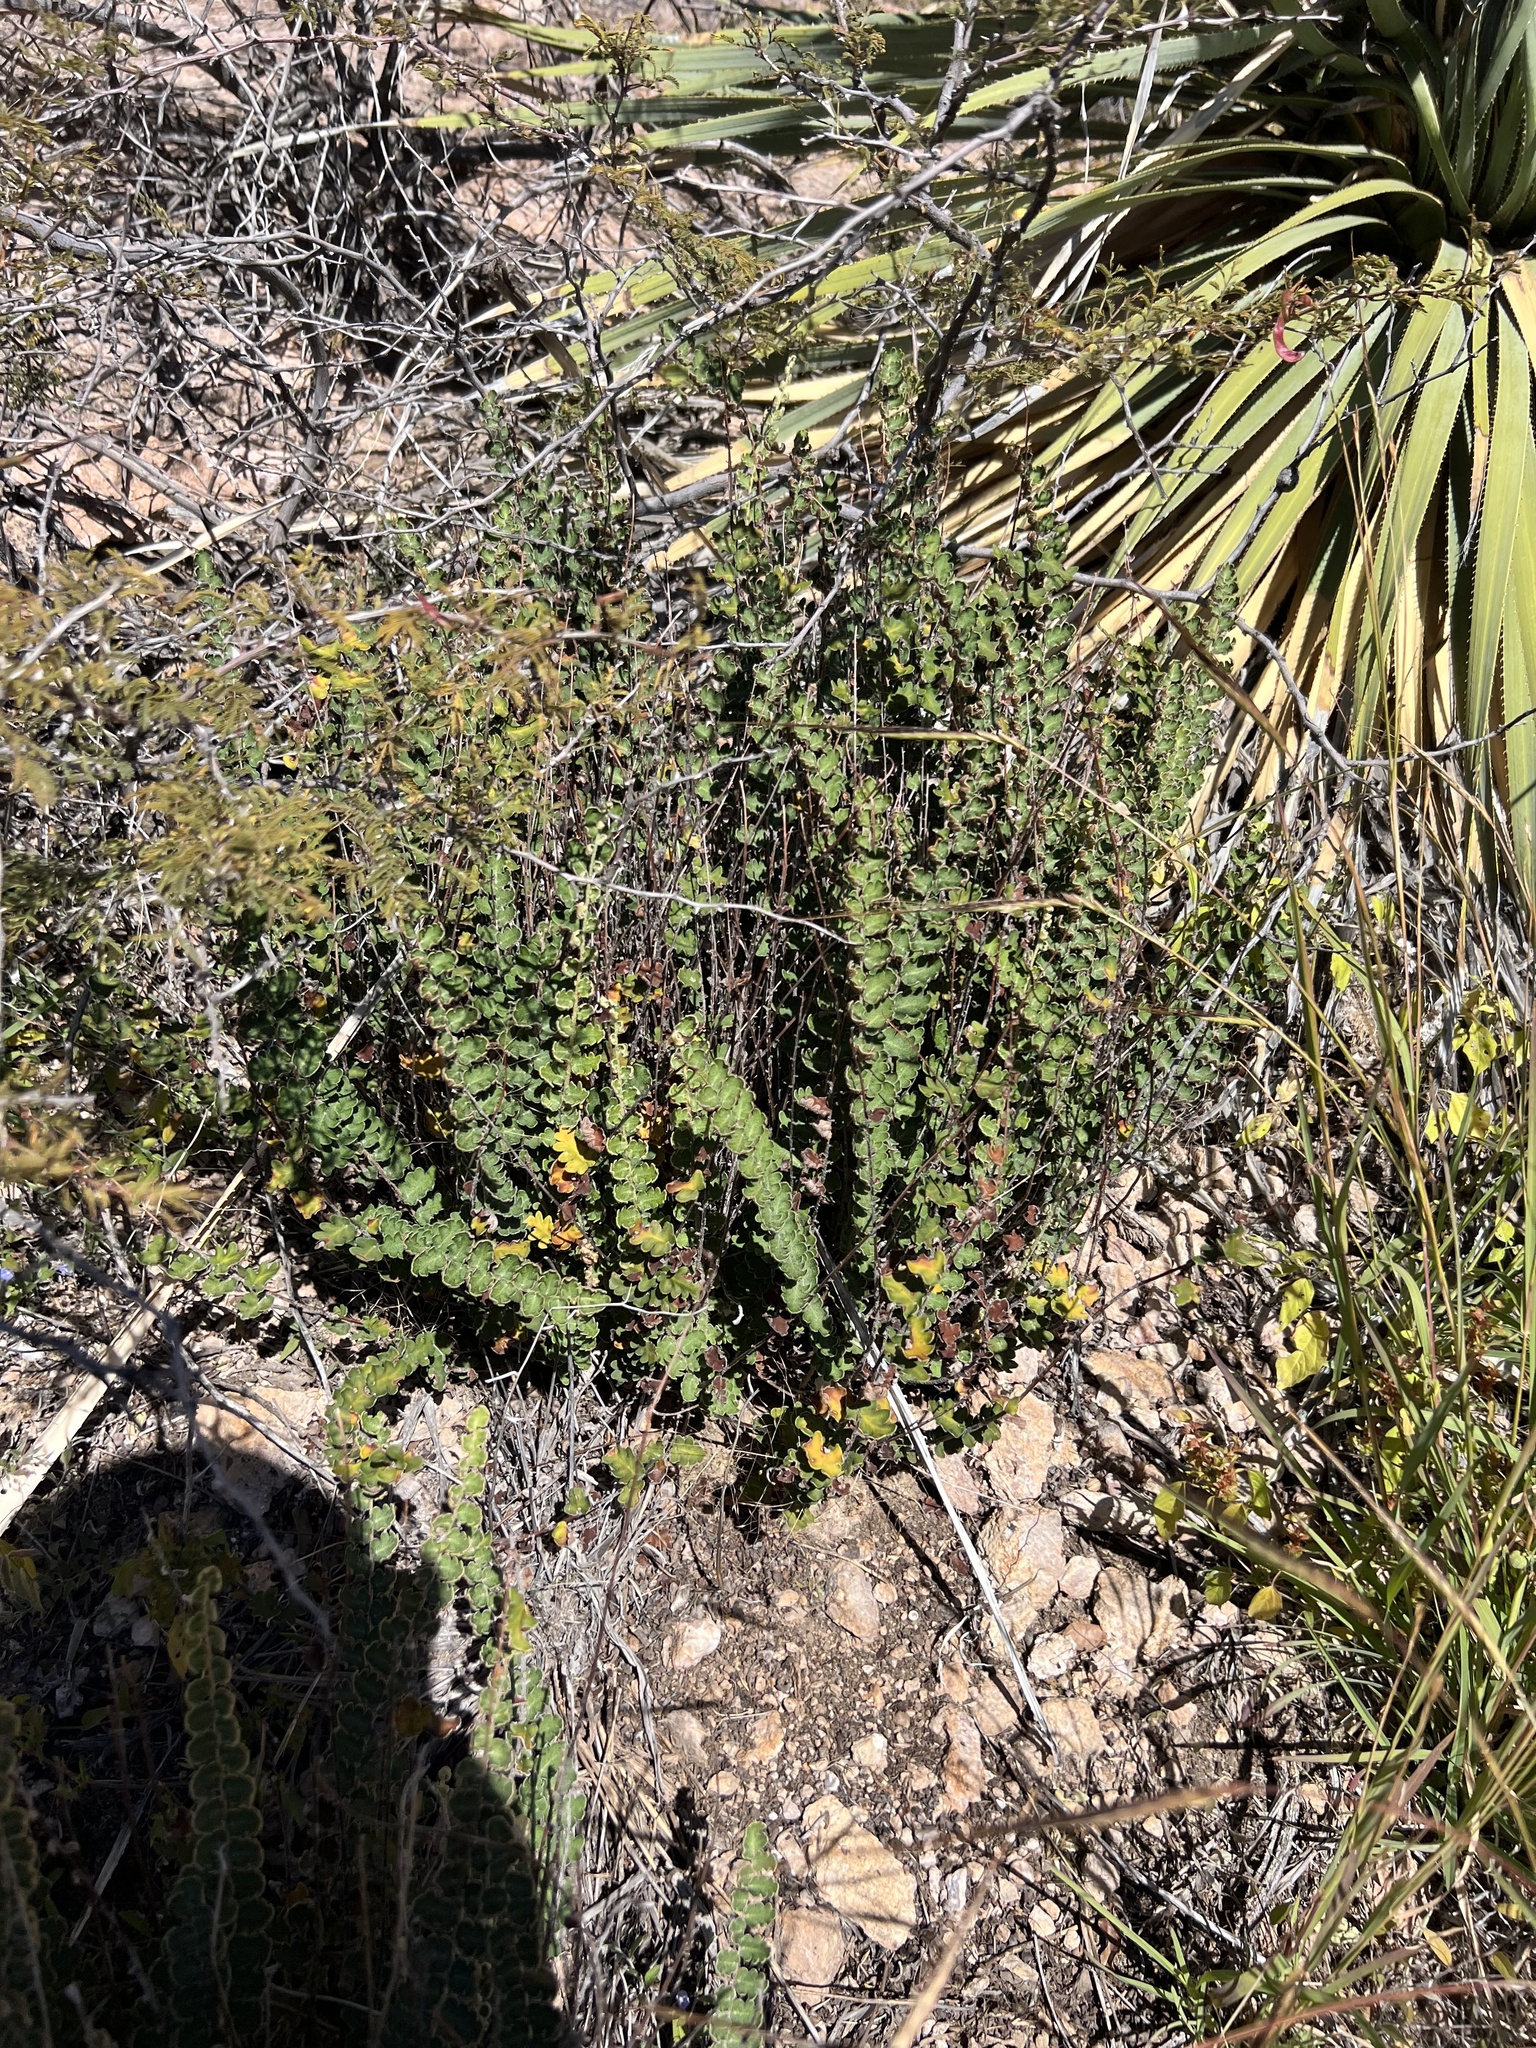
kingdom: Plantae
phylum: Tracheophyta
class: Polypodiopsida
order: Polypodiales
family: Pteridaceae
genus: Astrolepis
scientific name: Astrolepis sinuata
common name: Wavy scaly cloakfern
